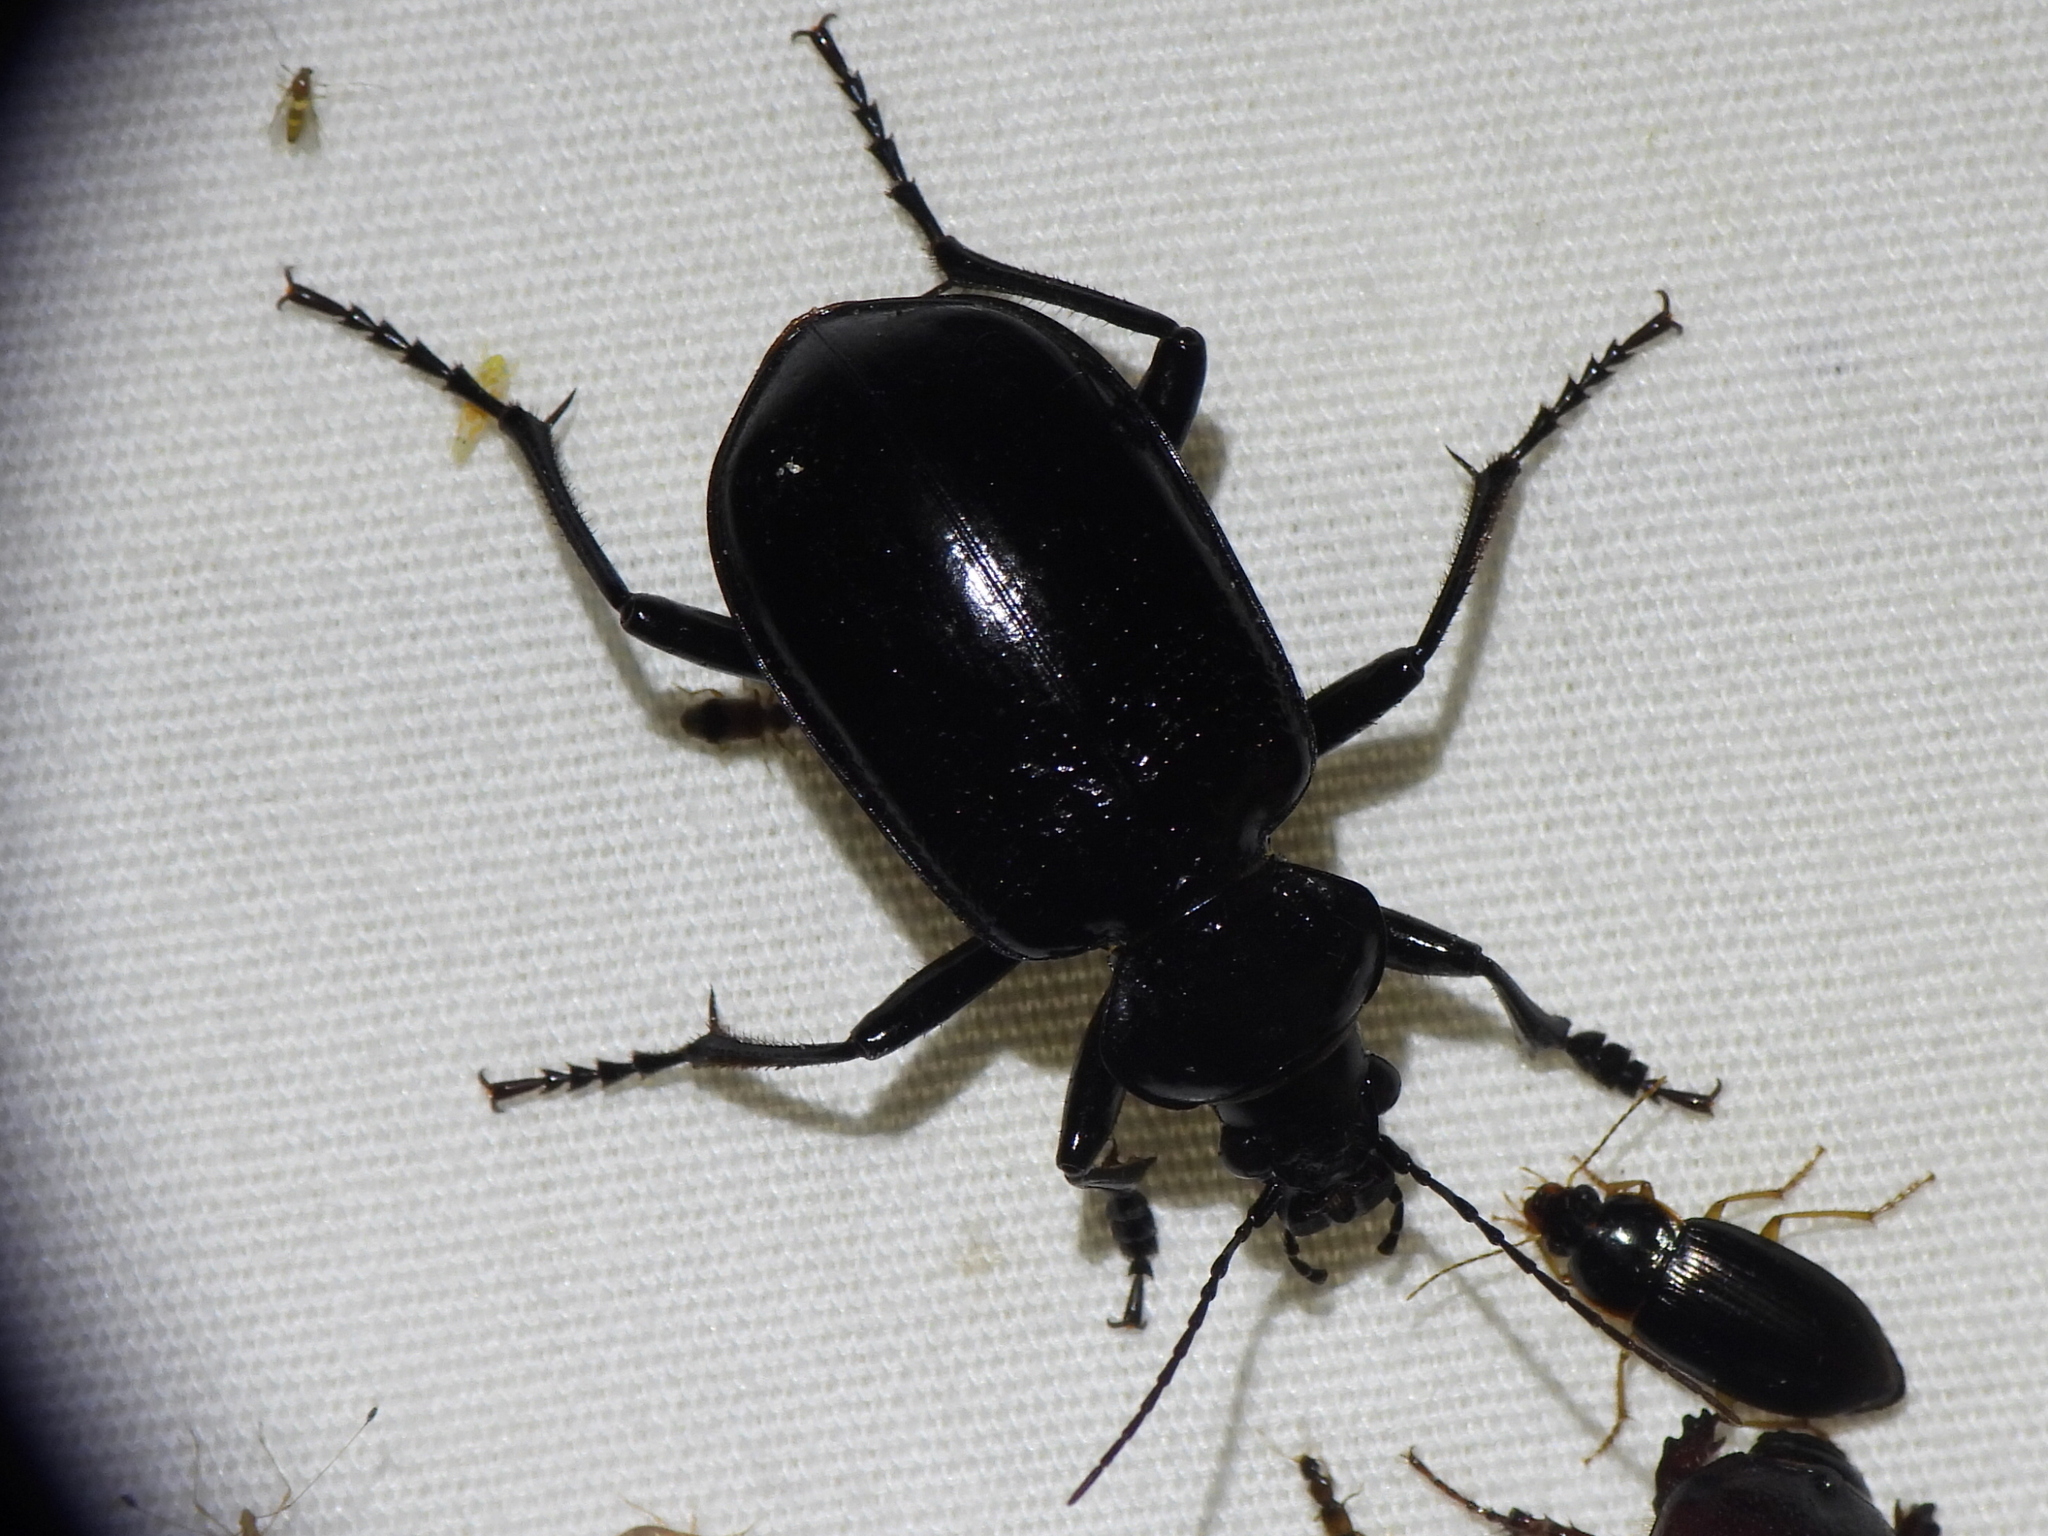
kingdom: Animalia
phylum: Arthropoda
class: Insecta
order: Coleoptera
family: Carabidae
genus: Calosoma
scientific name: Calosoma marginale
